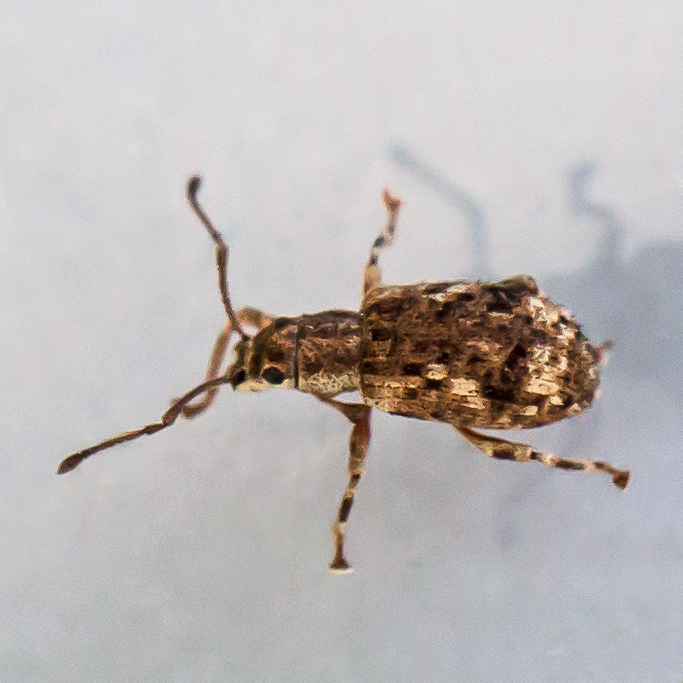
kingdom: Animalia
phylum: Arthropoda
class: Insecta
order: Coleoptera
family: Curculionidae
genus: Pseudoedophrys
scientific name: Pseudoedophrys hilleri
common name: Weevil
